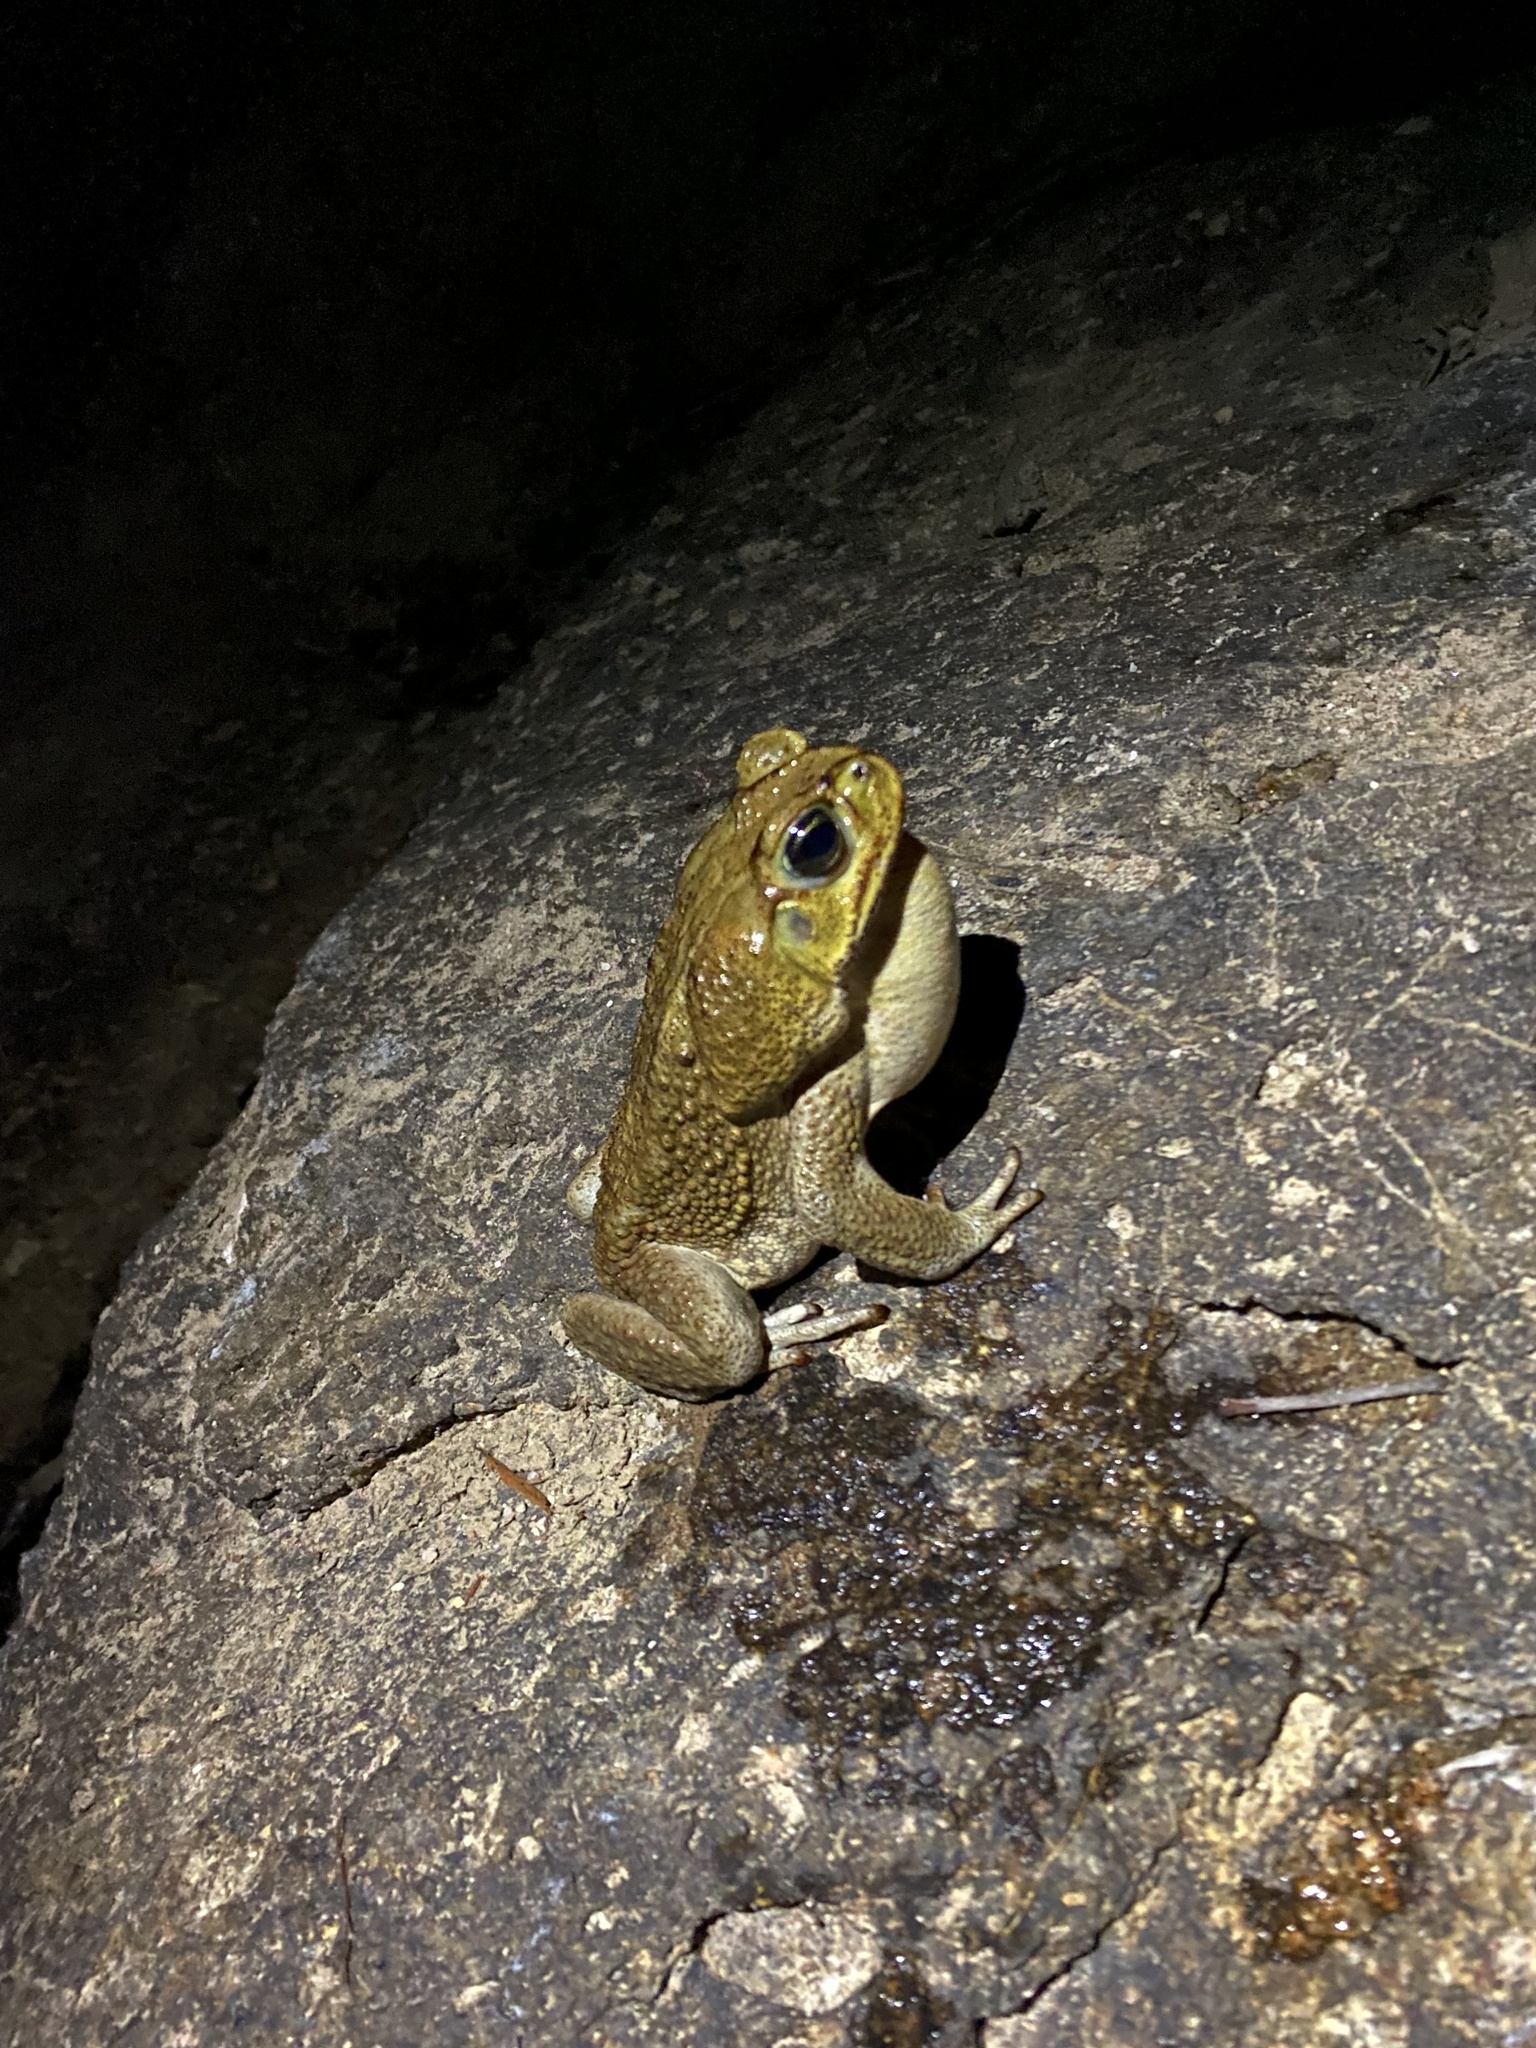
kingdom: Animalia
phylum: Chordata
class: Amphibia
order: Anura
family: Bufonidae
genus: Rhinella
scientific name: Rhinella horribilis
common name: Mesoamerican cane toad
